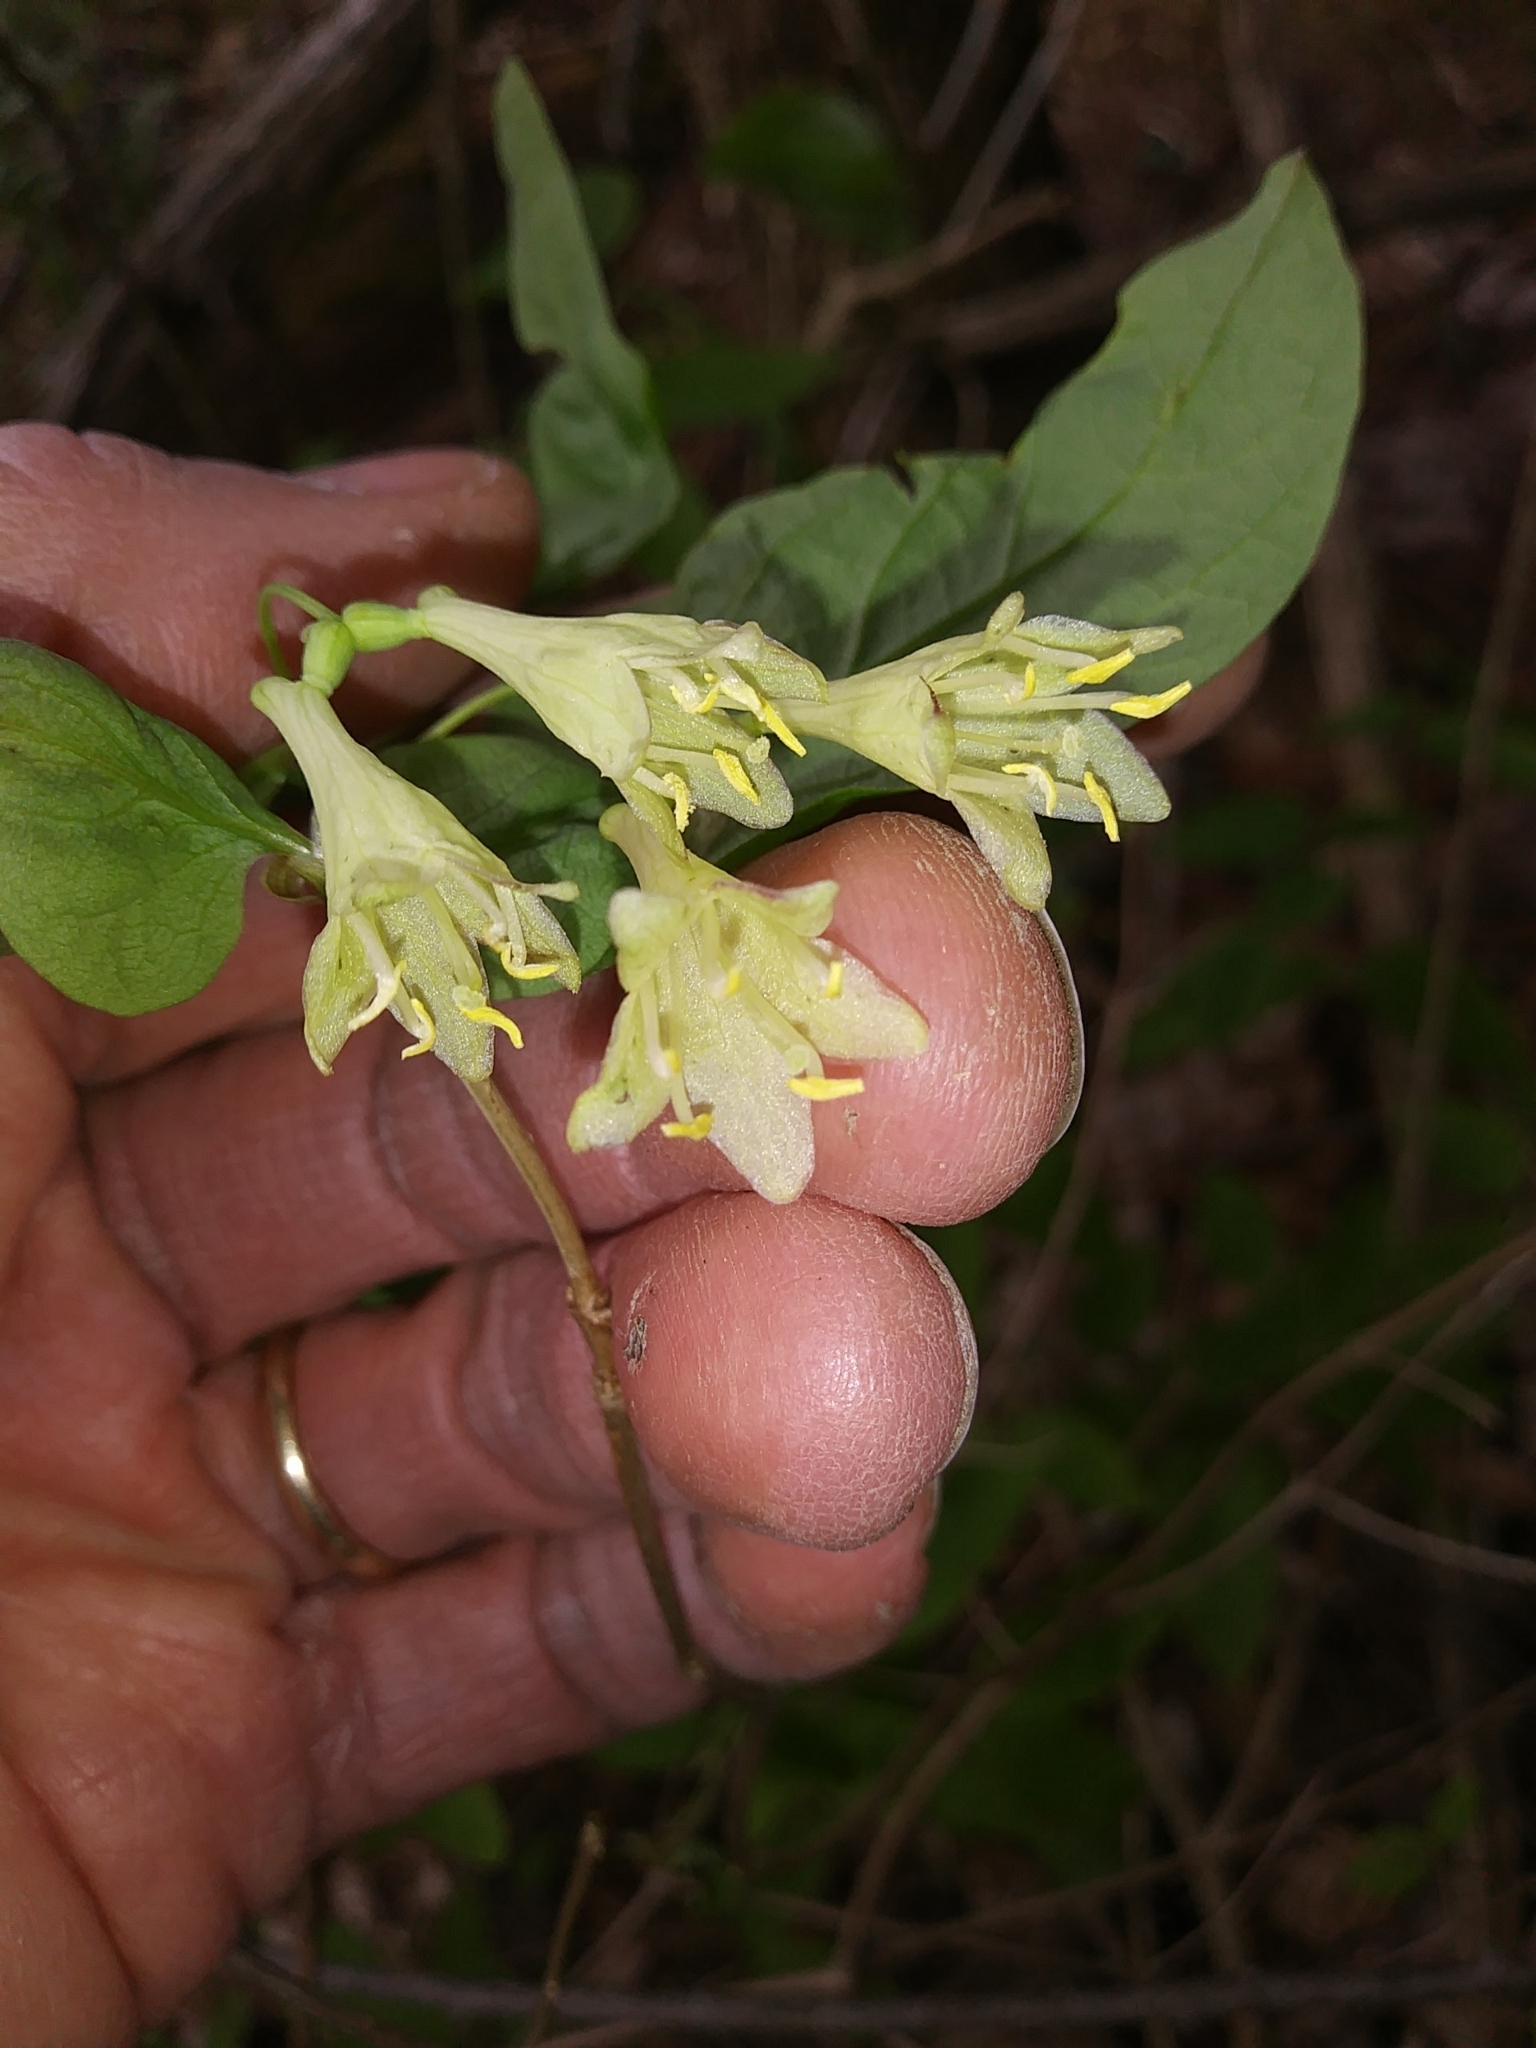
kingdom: Plantae
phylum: Tracheophyta
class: Magnoliopsida
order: Dipsacales
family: Caprifoliaceae
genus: Lonicera
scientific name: Lonicera canadensis
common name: American fly-honeysuckle
